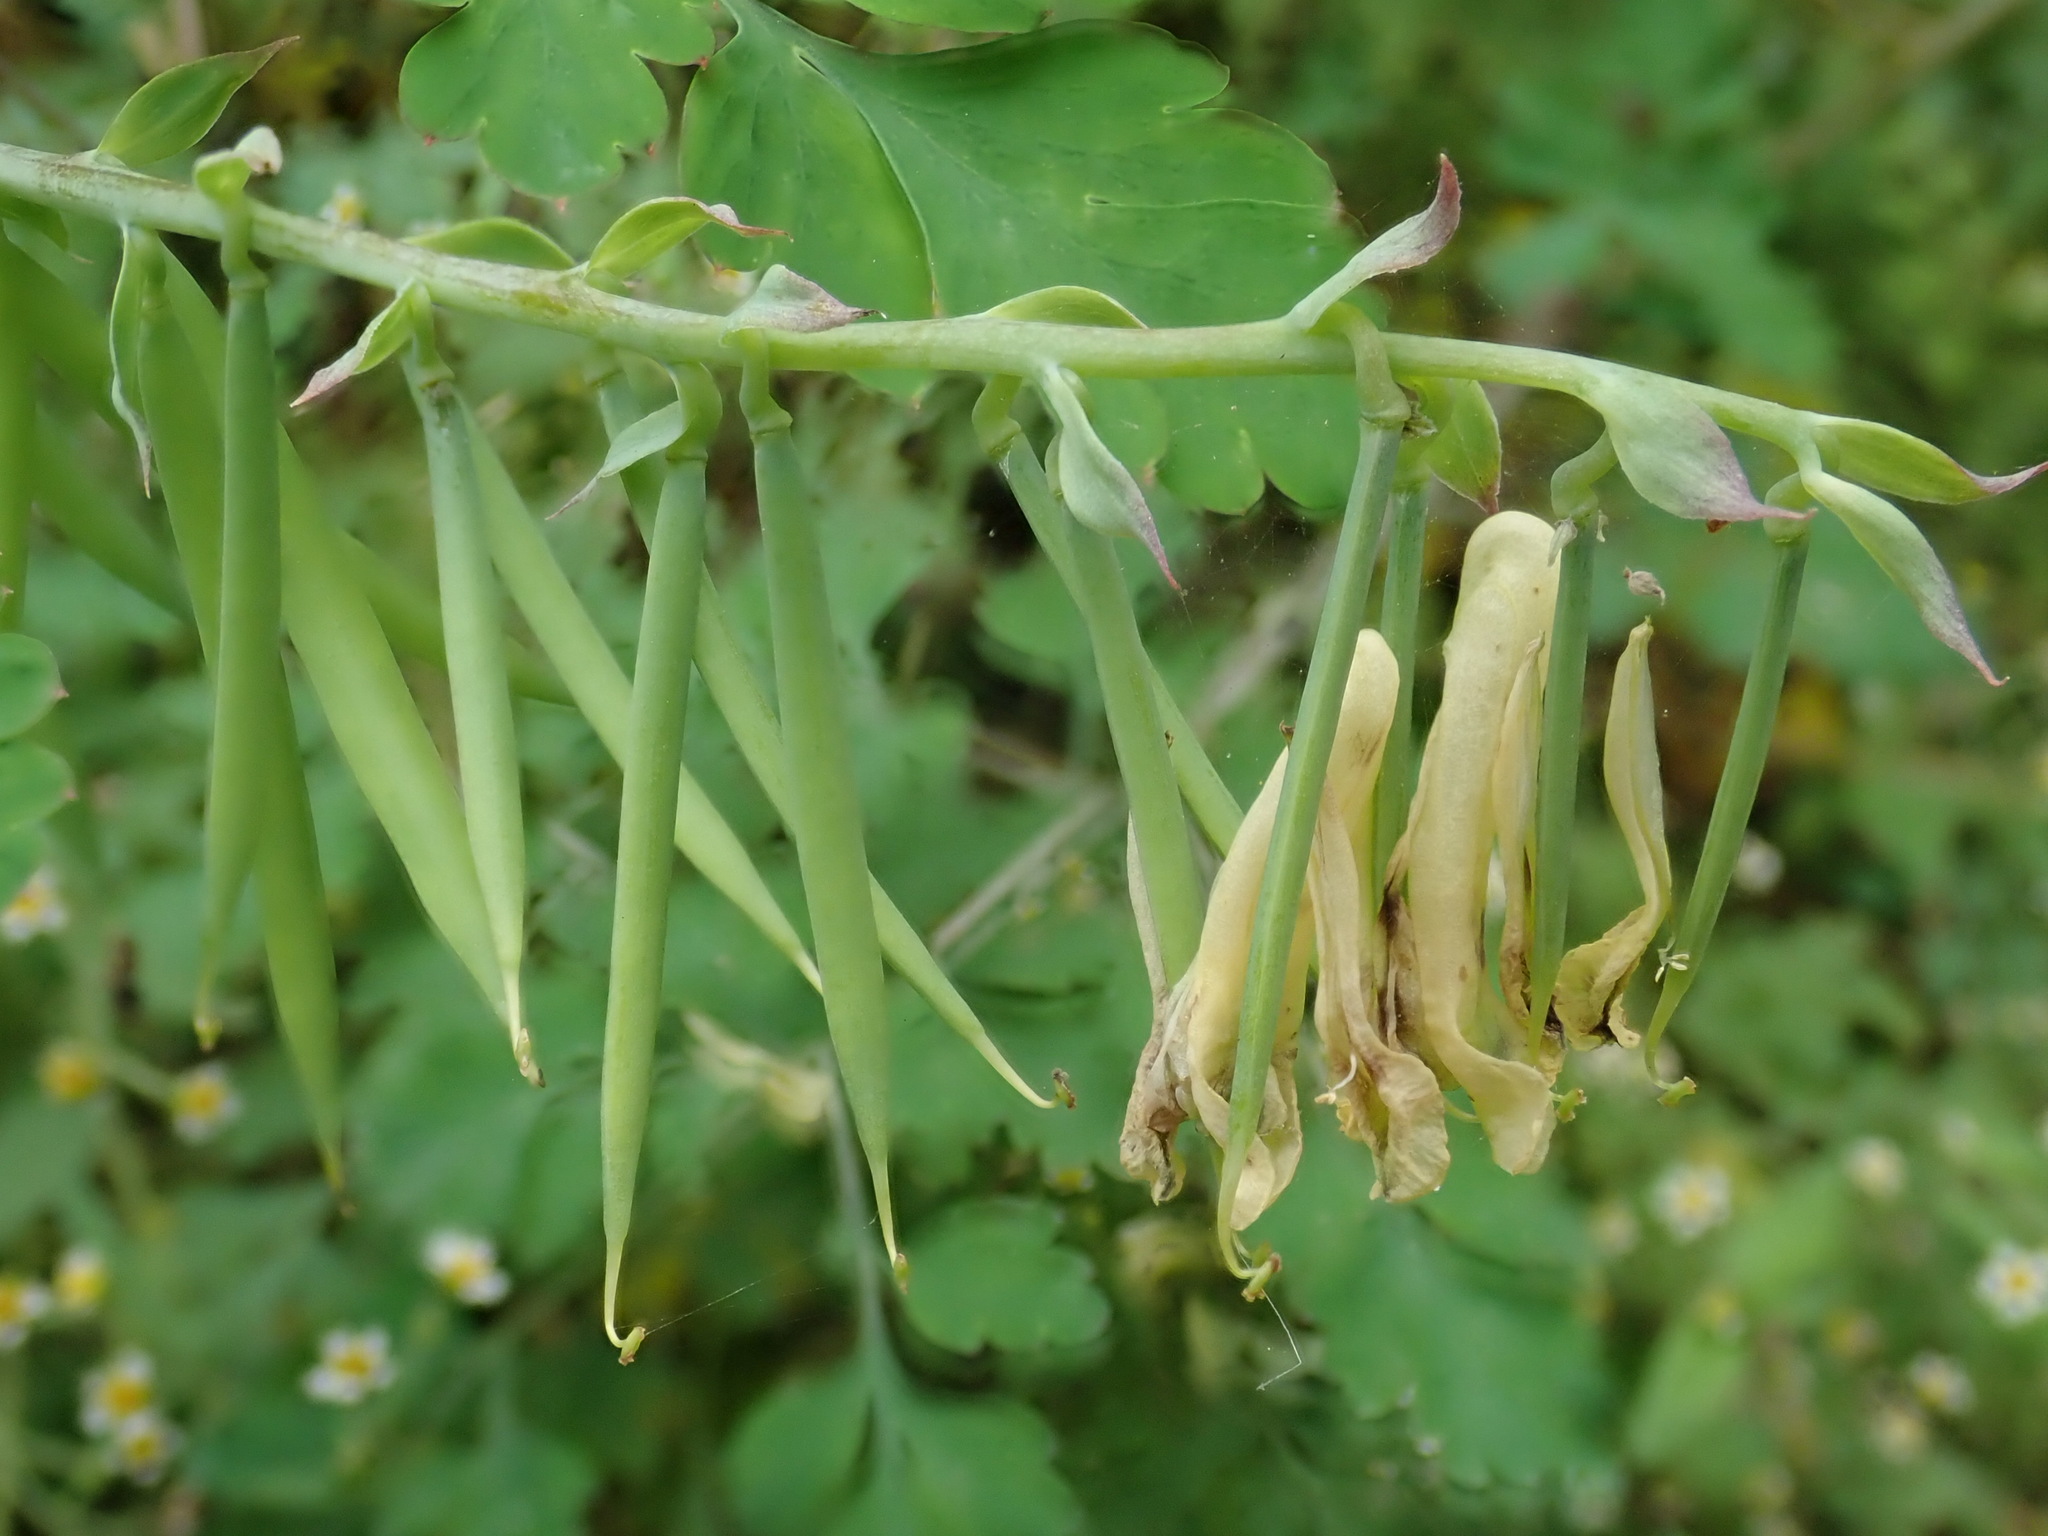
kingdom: Plantae
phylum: Tracheophyta
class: Magnoliopsida
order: Ranunculales
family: Papaveraceae
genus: Corydalis
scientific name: Corydalis balansae
